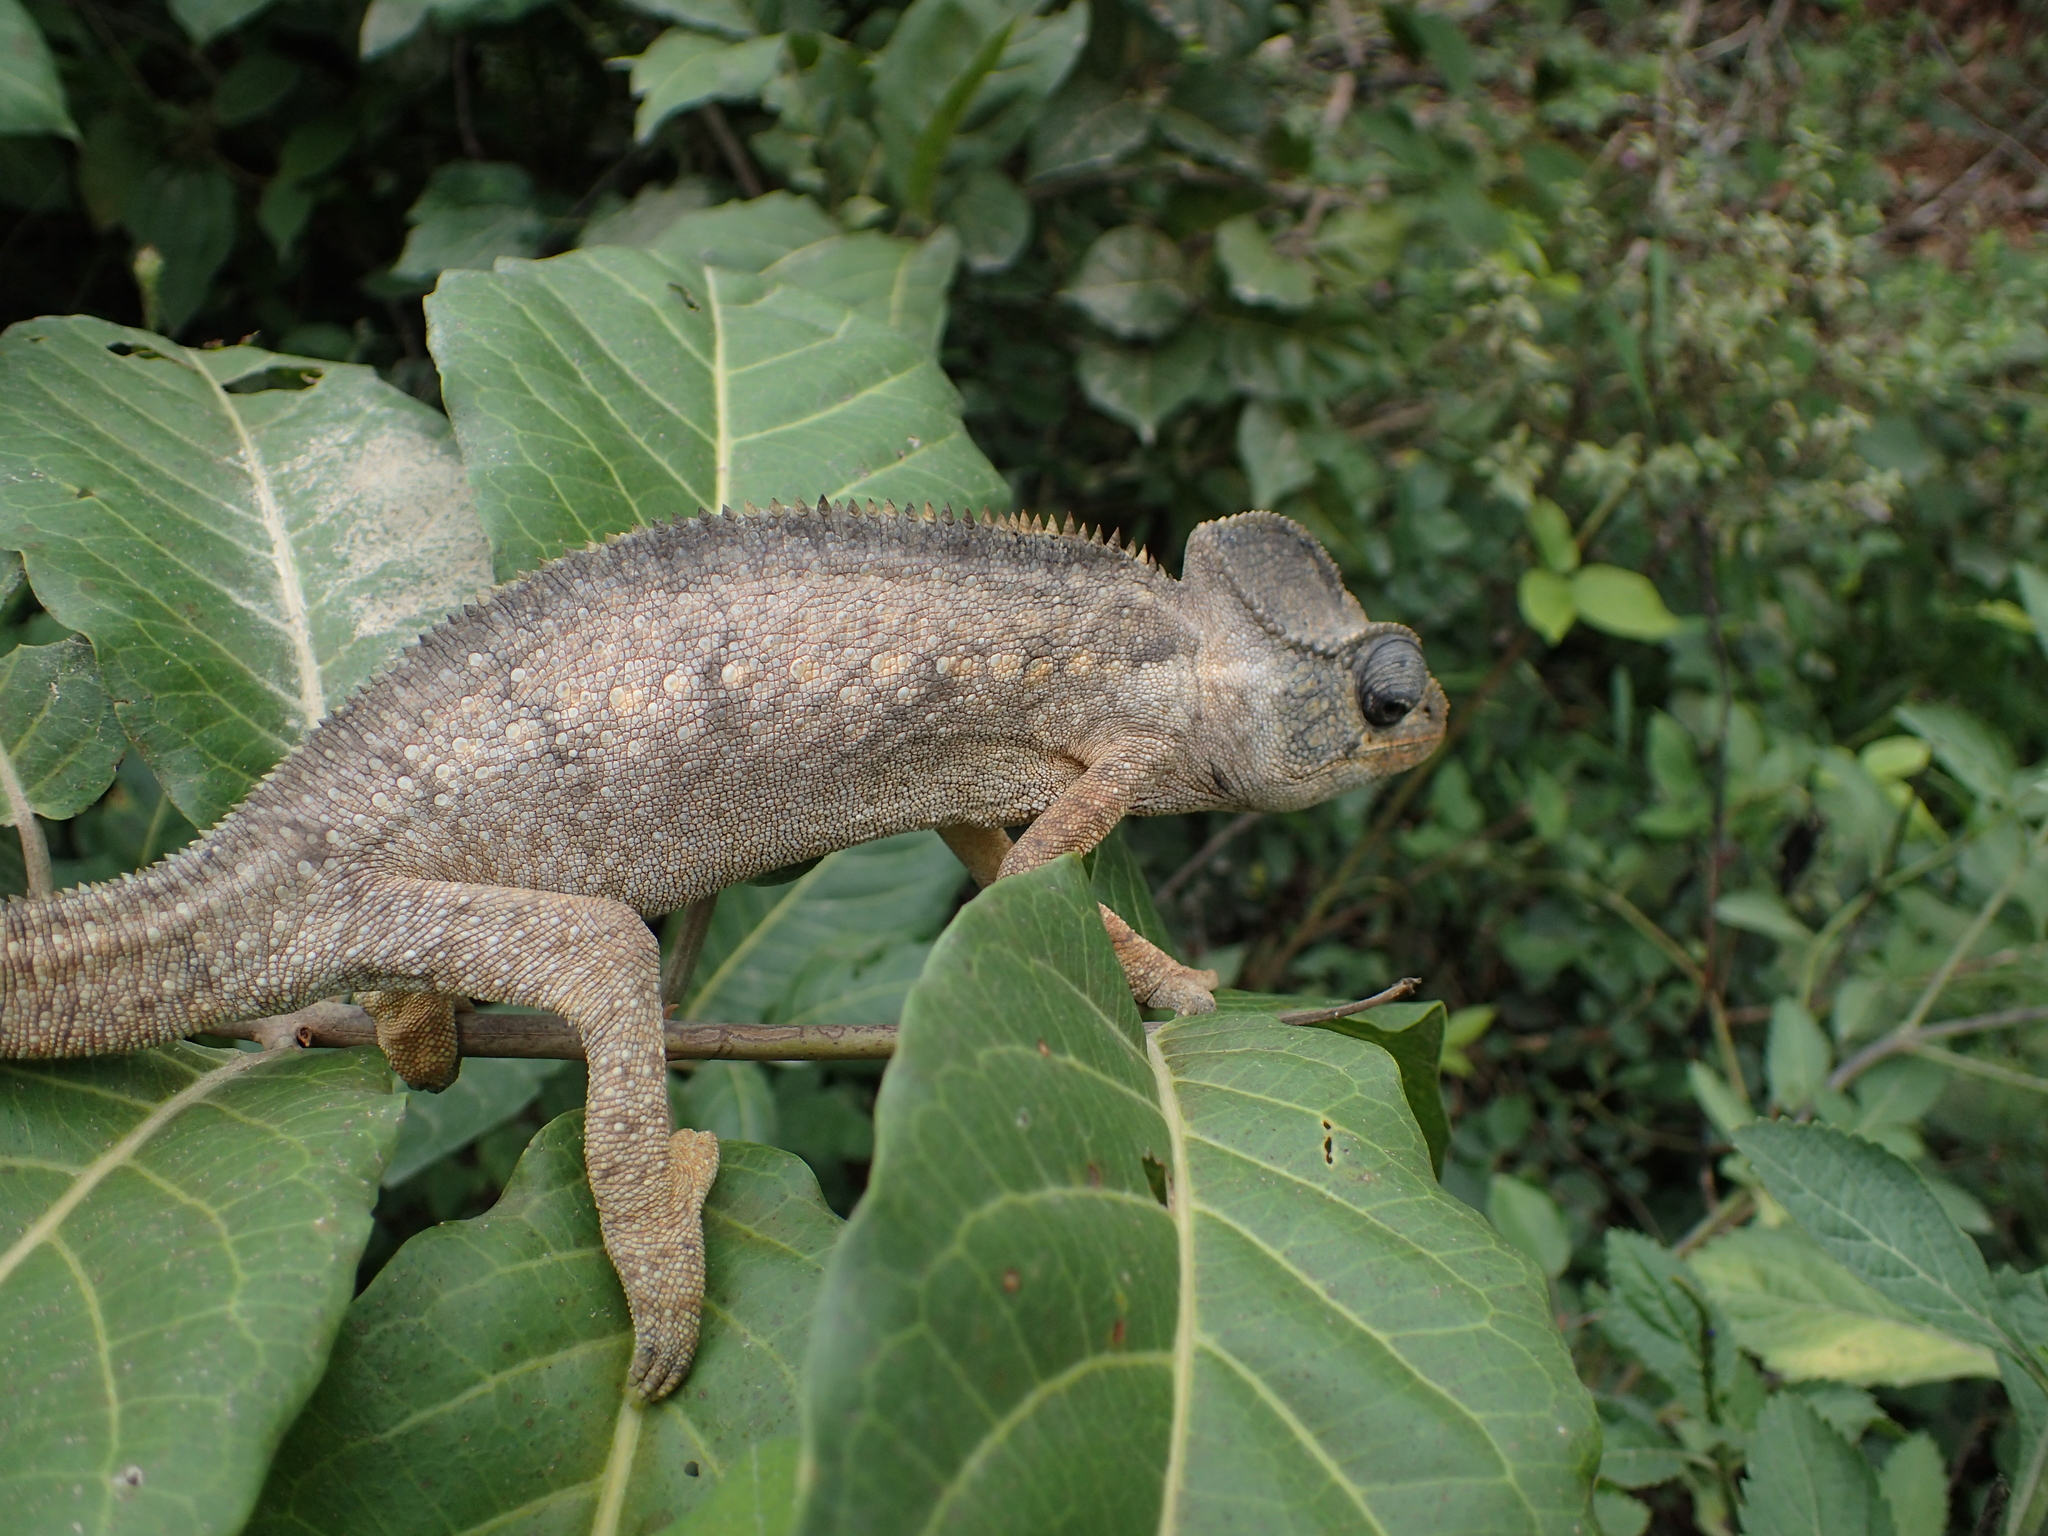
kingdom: Animalia
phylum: Chordata
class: Squamata
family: Chamaeleonidae
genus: Furcifer
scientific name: Furcifer oustaleti
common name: Oustalet's chameleon
